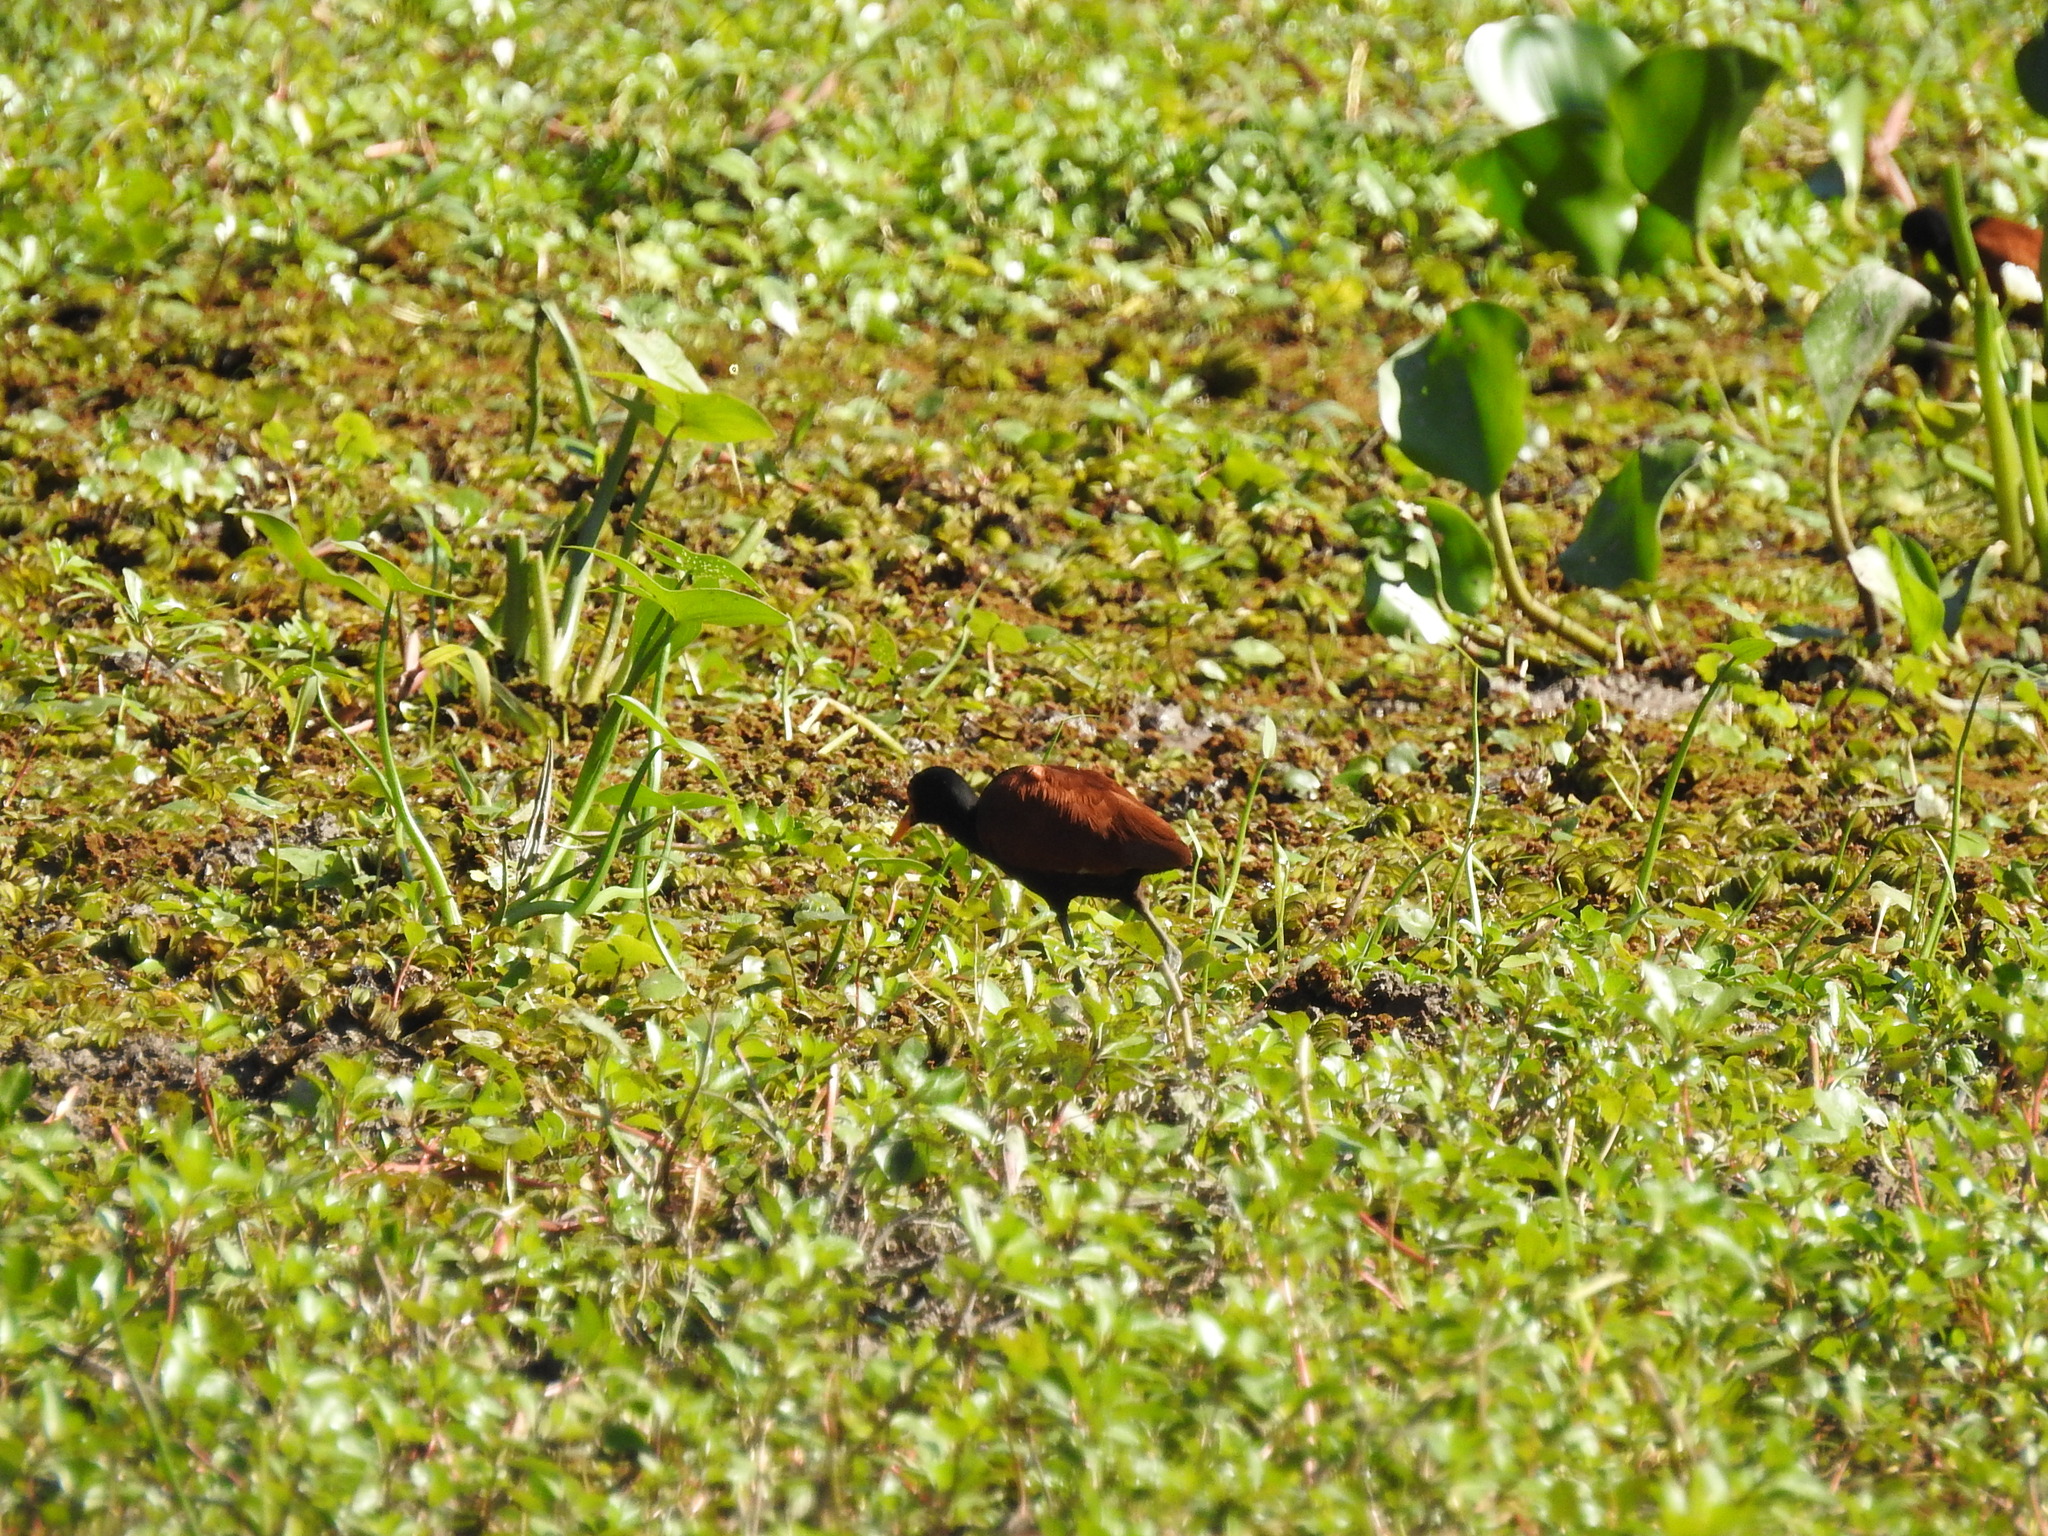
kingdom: Animalia
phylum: Chordata
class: Aves
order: Charadriiformes
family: Jacanidae
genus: Jacana
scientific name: Jacana jacana
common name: Wattled jacana
